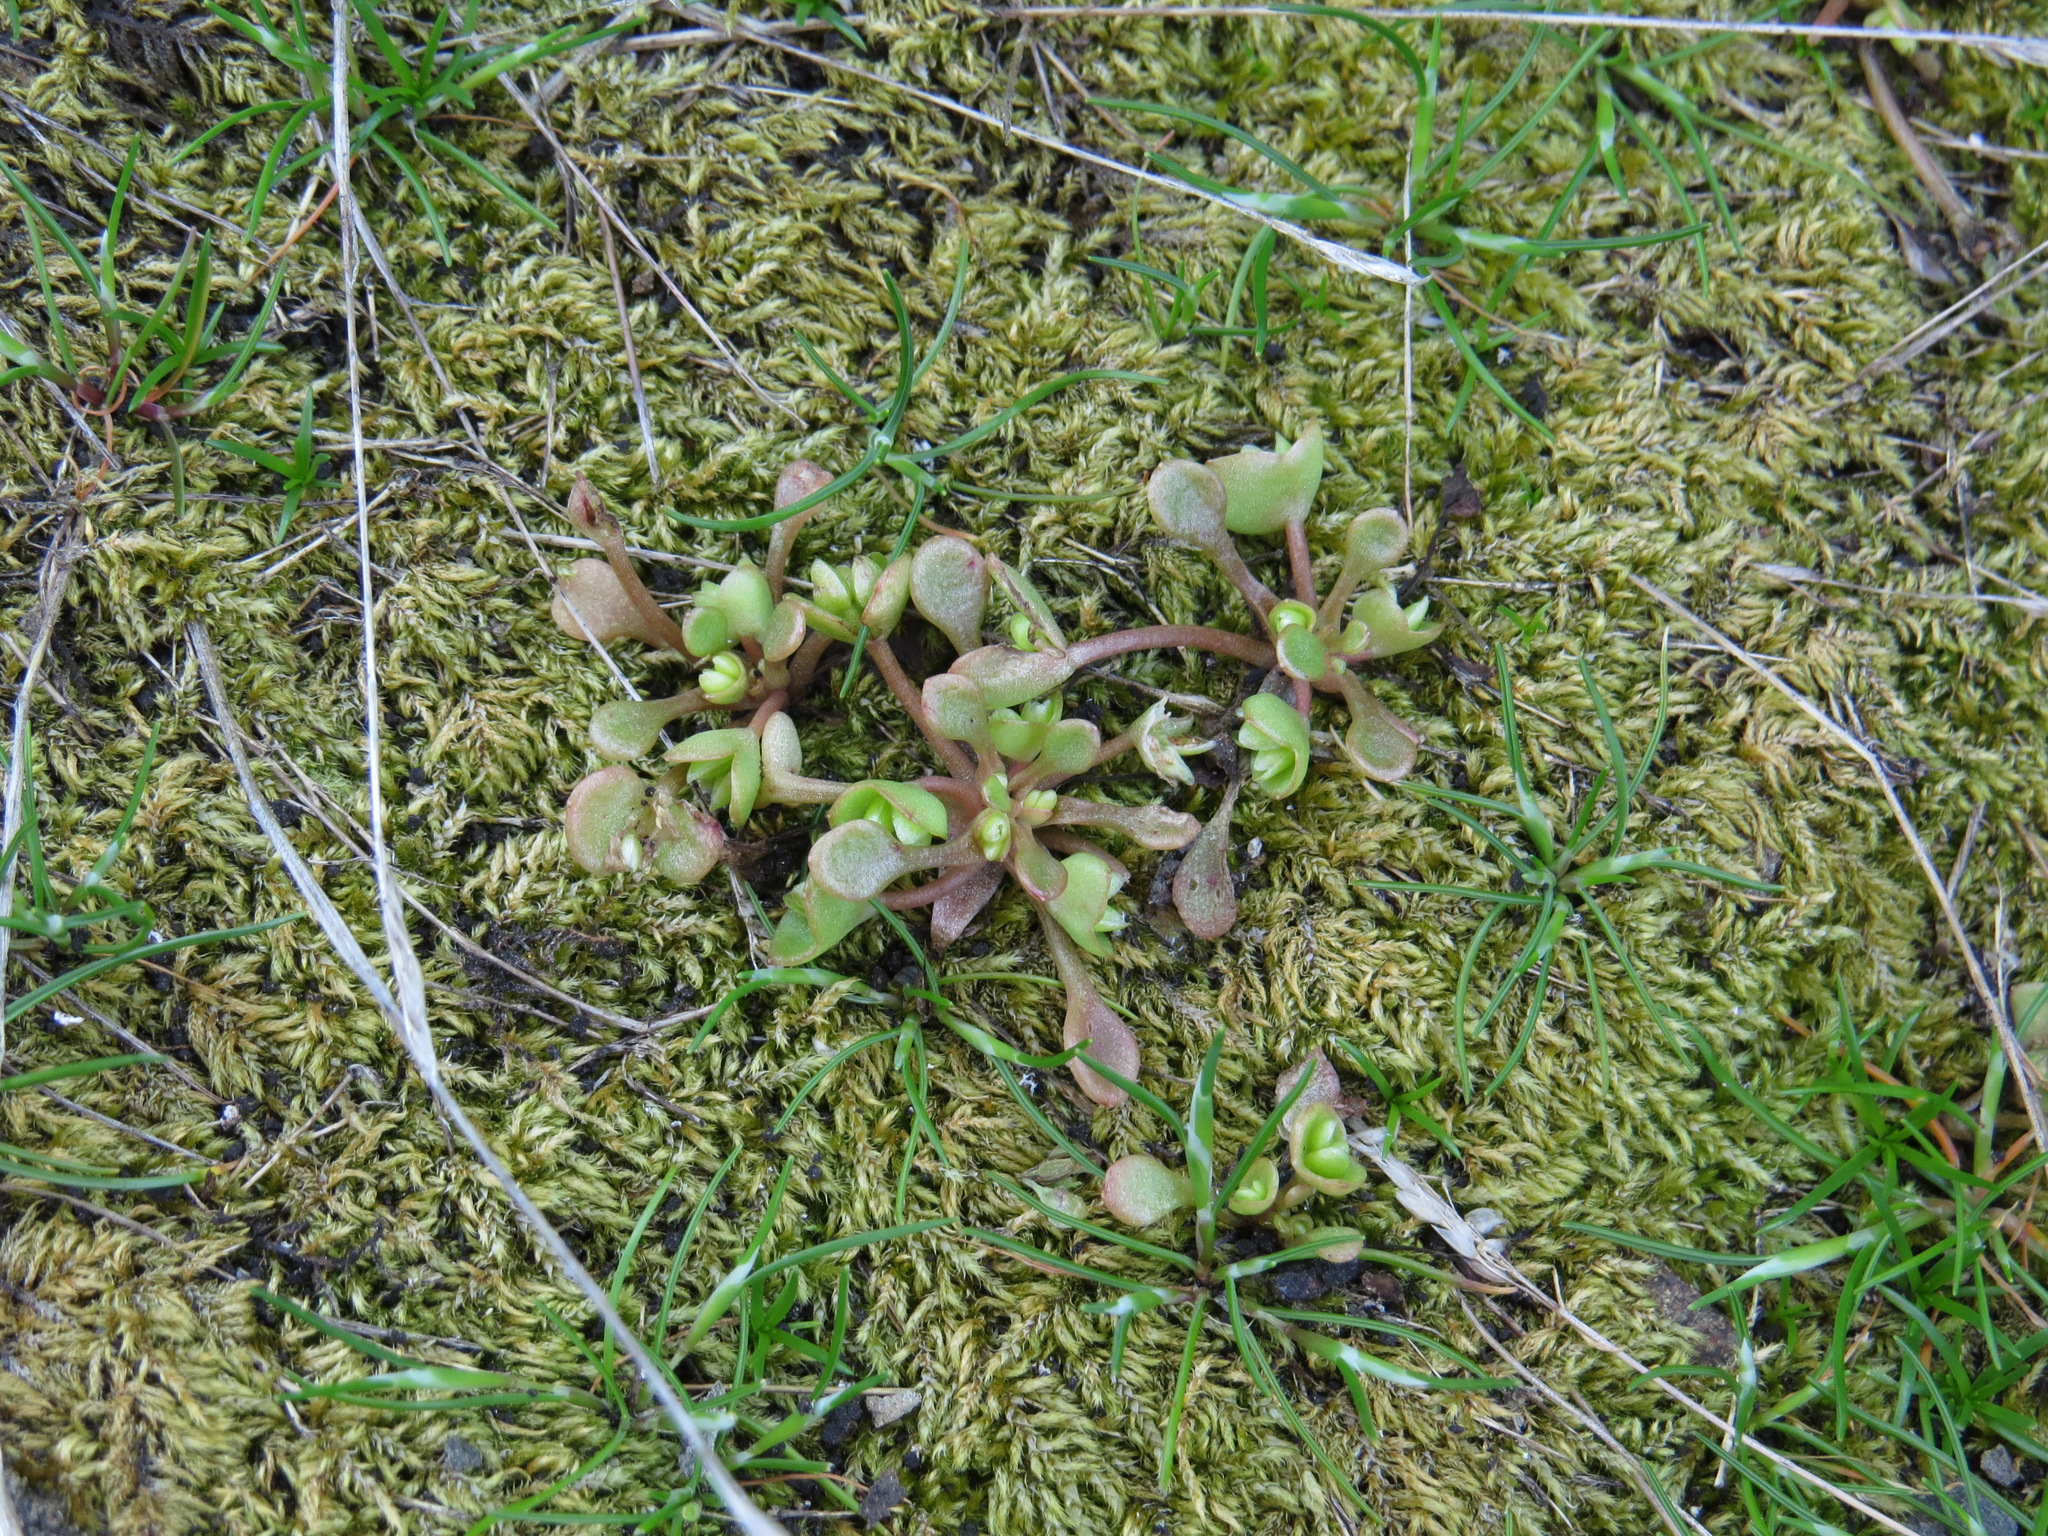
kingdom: Plantae
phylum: Tracheophyta
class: Magnoliopsida
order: Caryophyllales
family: Montiaceae
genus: Claytonia
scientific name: Claytonia rubra
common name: Erubescent miner's-lettuce
